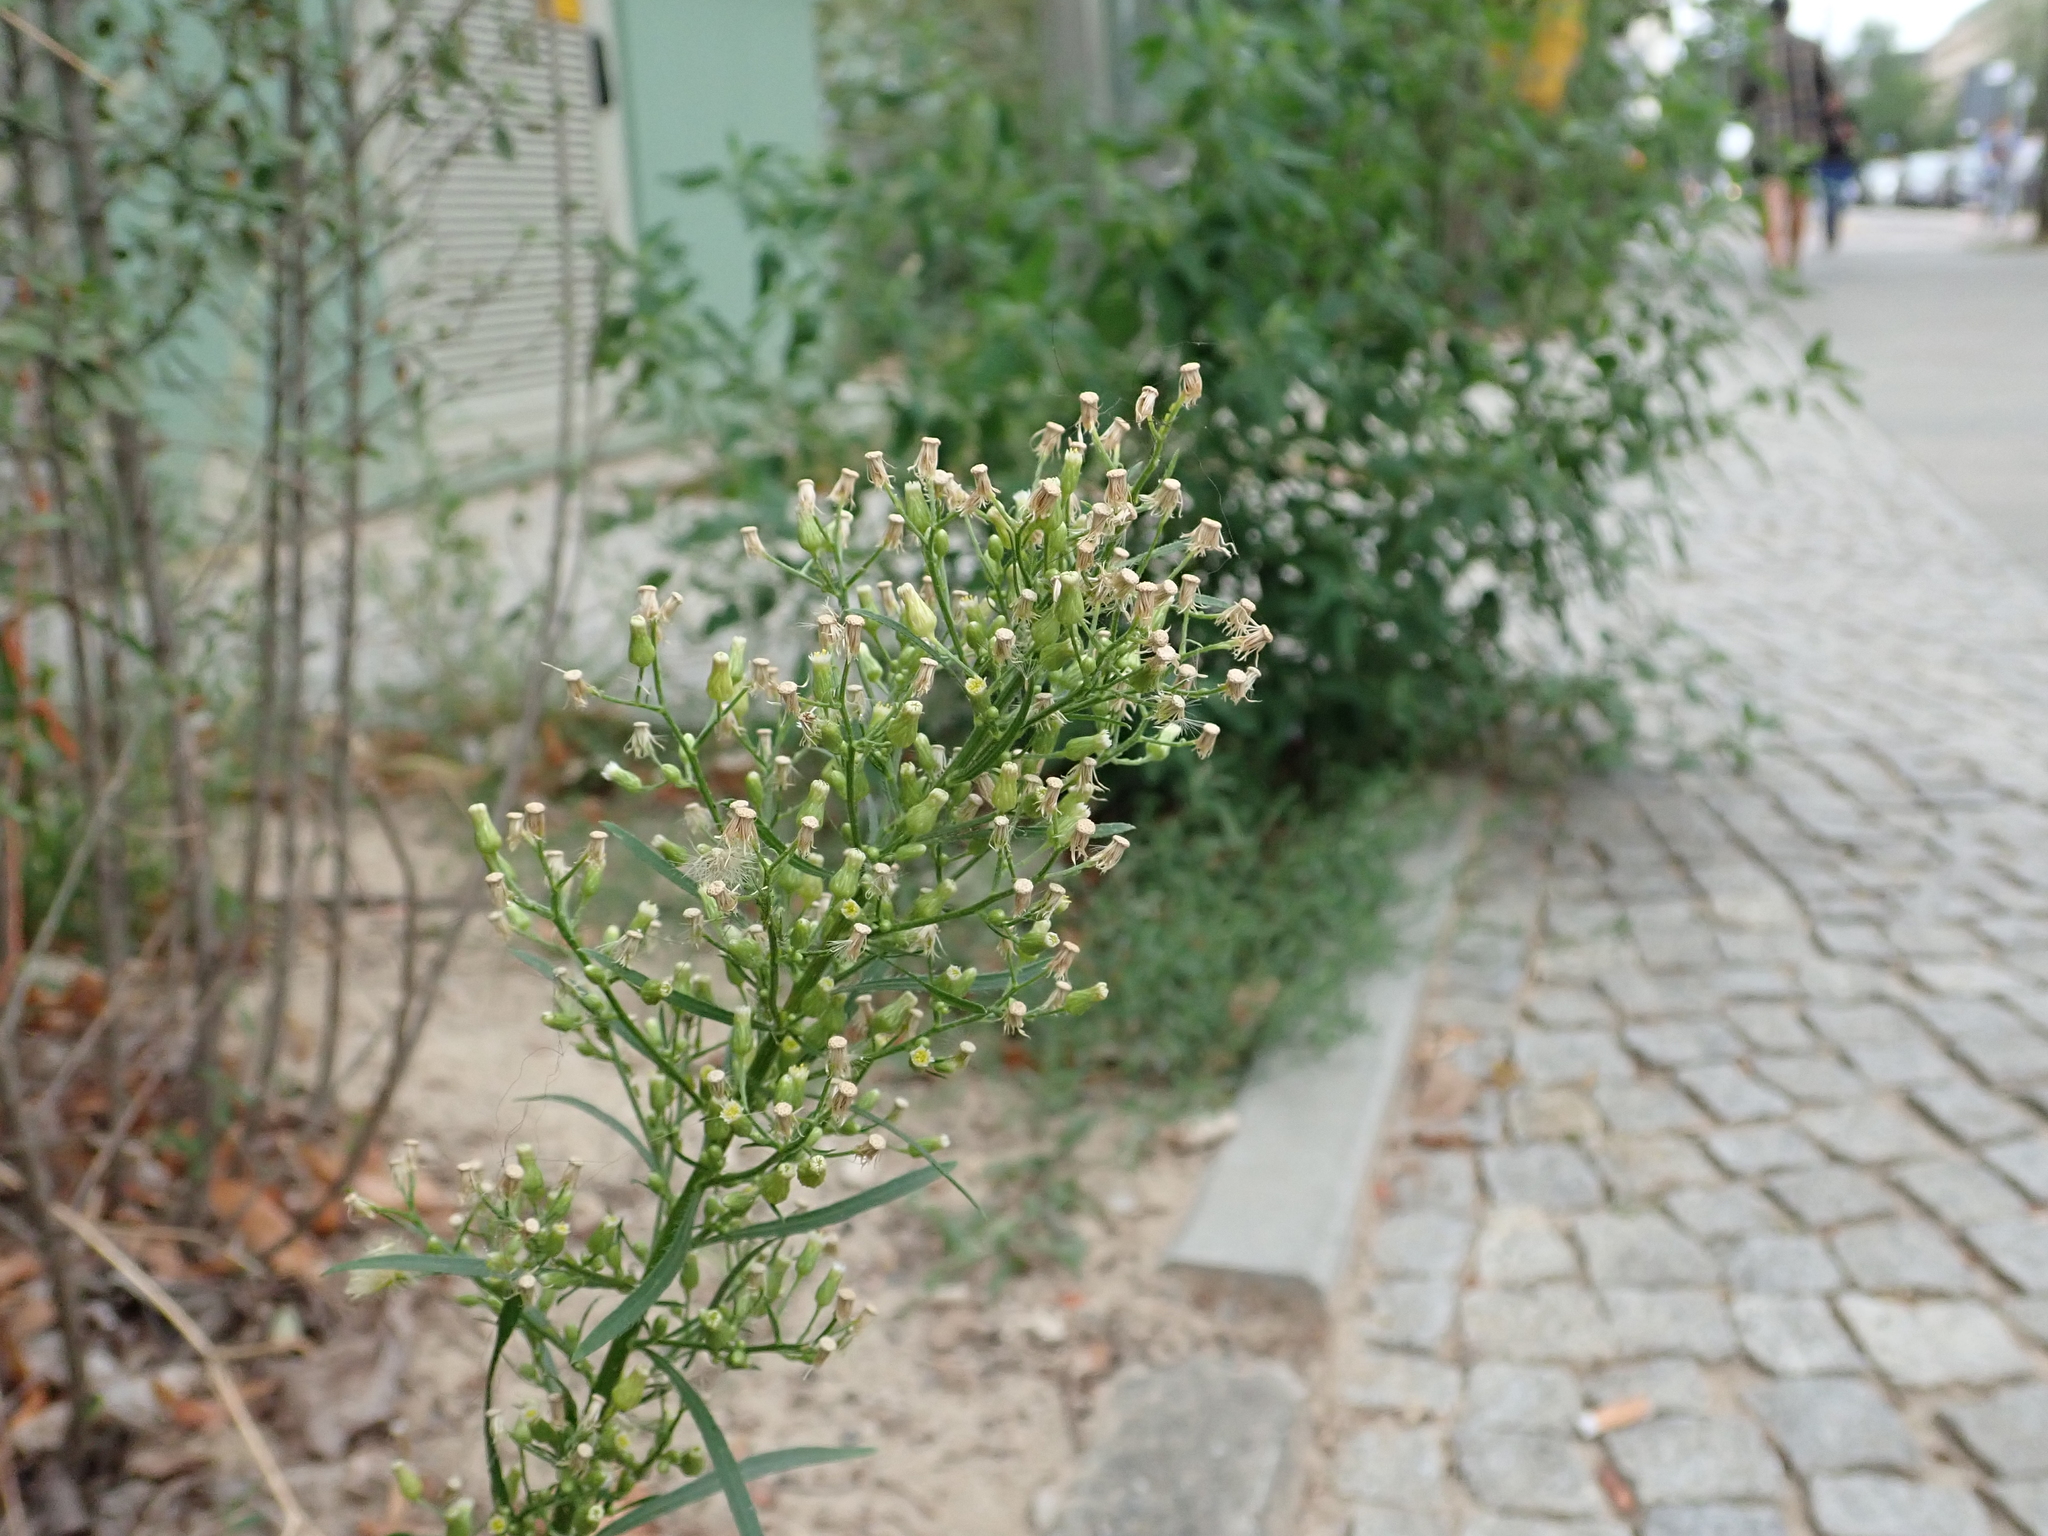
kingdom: Plantae
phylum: Tracheophyta
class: Magnoliopsida
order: Asterales
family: Asteraceae
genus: Erigeron
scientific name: Erigeron canadensis
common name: Canadian fleabane
